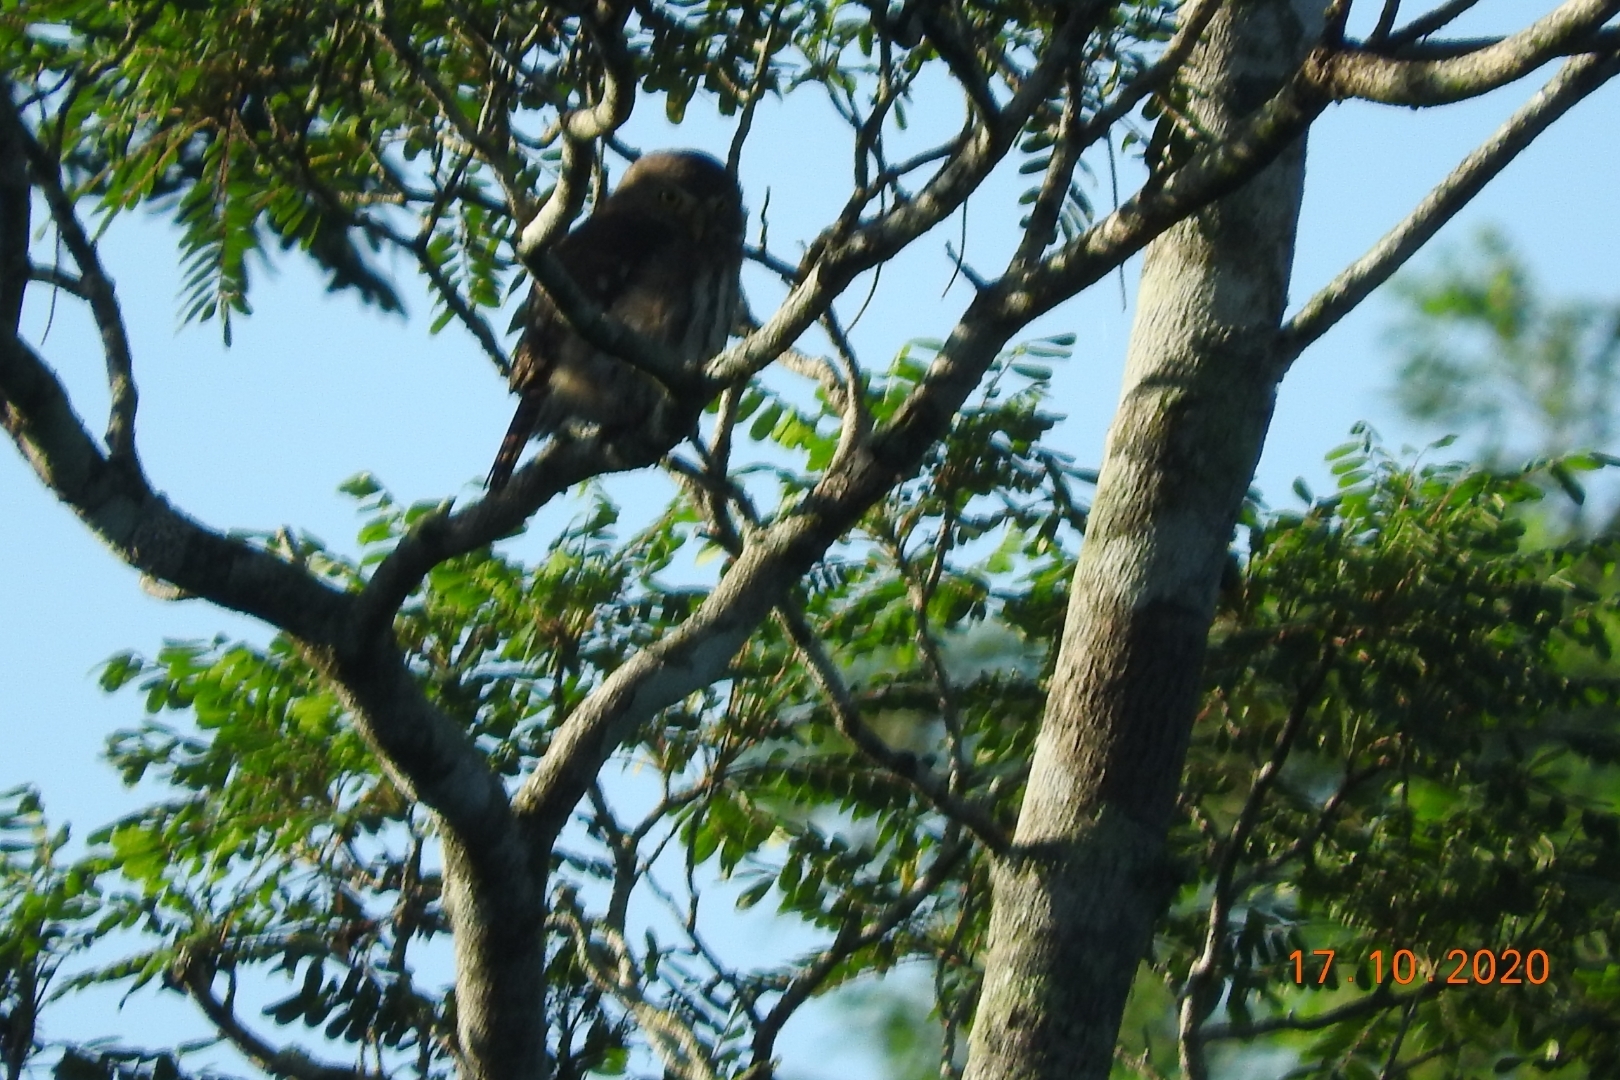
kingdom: Animalia
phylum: Chordata
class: Aves
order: Strigiformes
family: Strigidae
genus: Glaucidium
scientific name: Glaucidium brasilianum
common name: Ferruginous pygmy-owl
